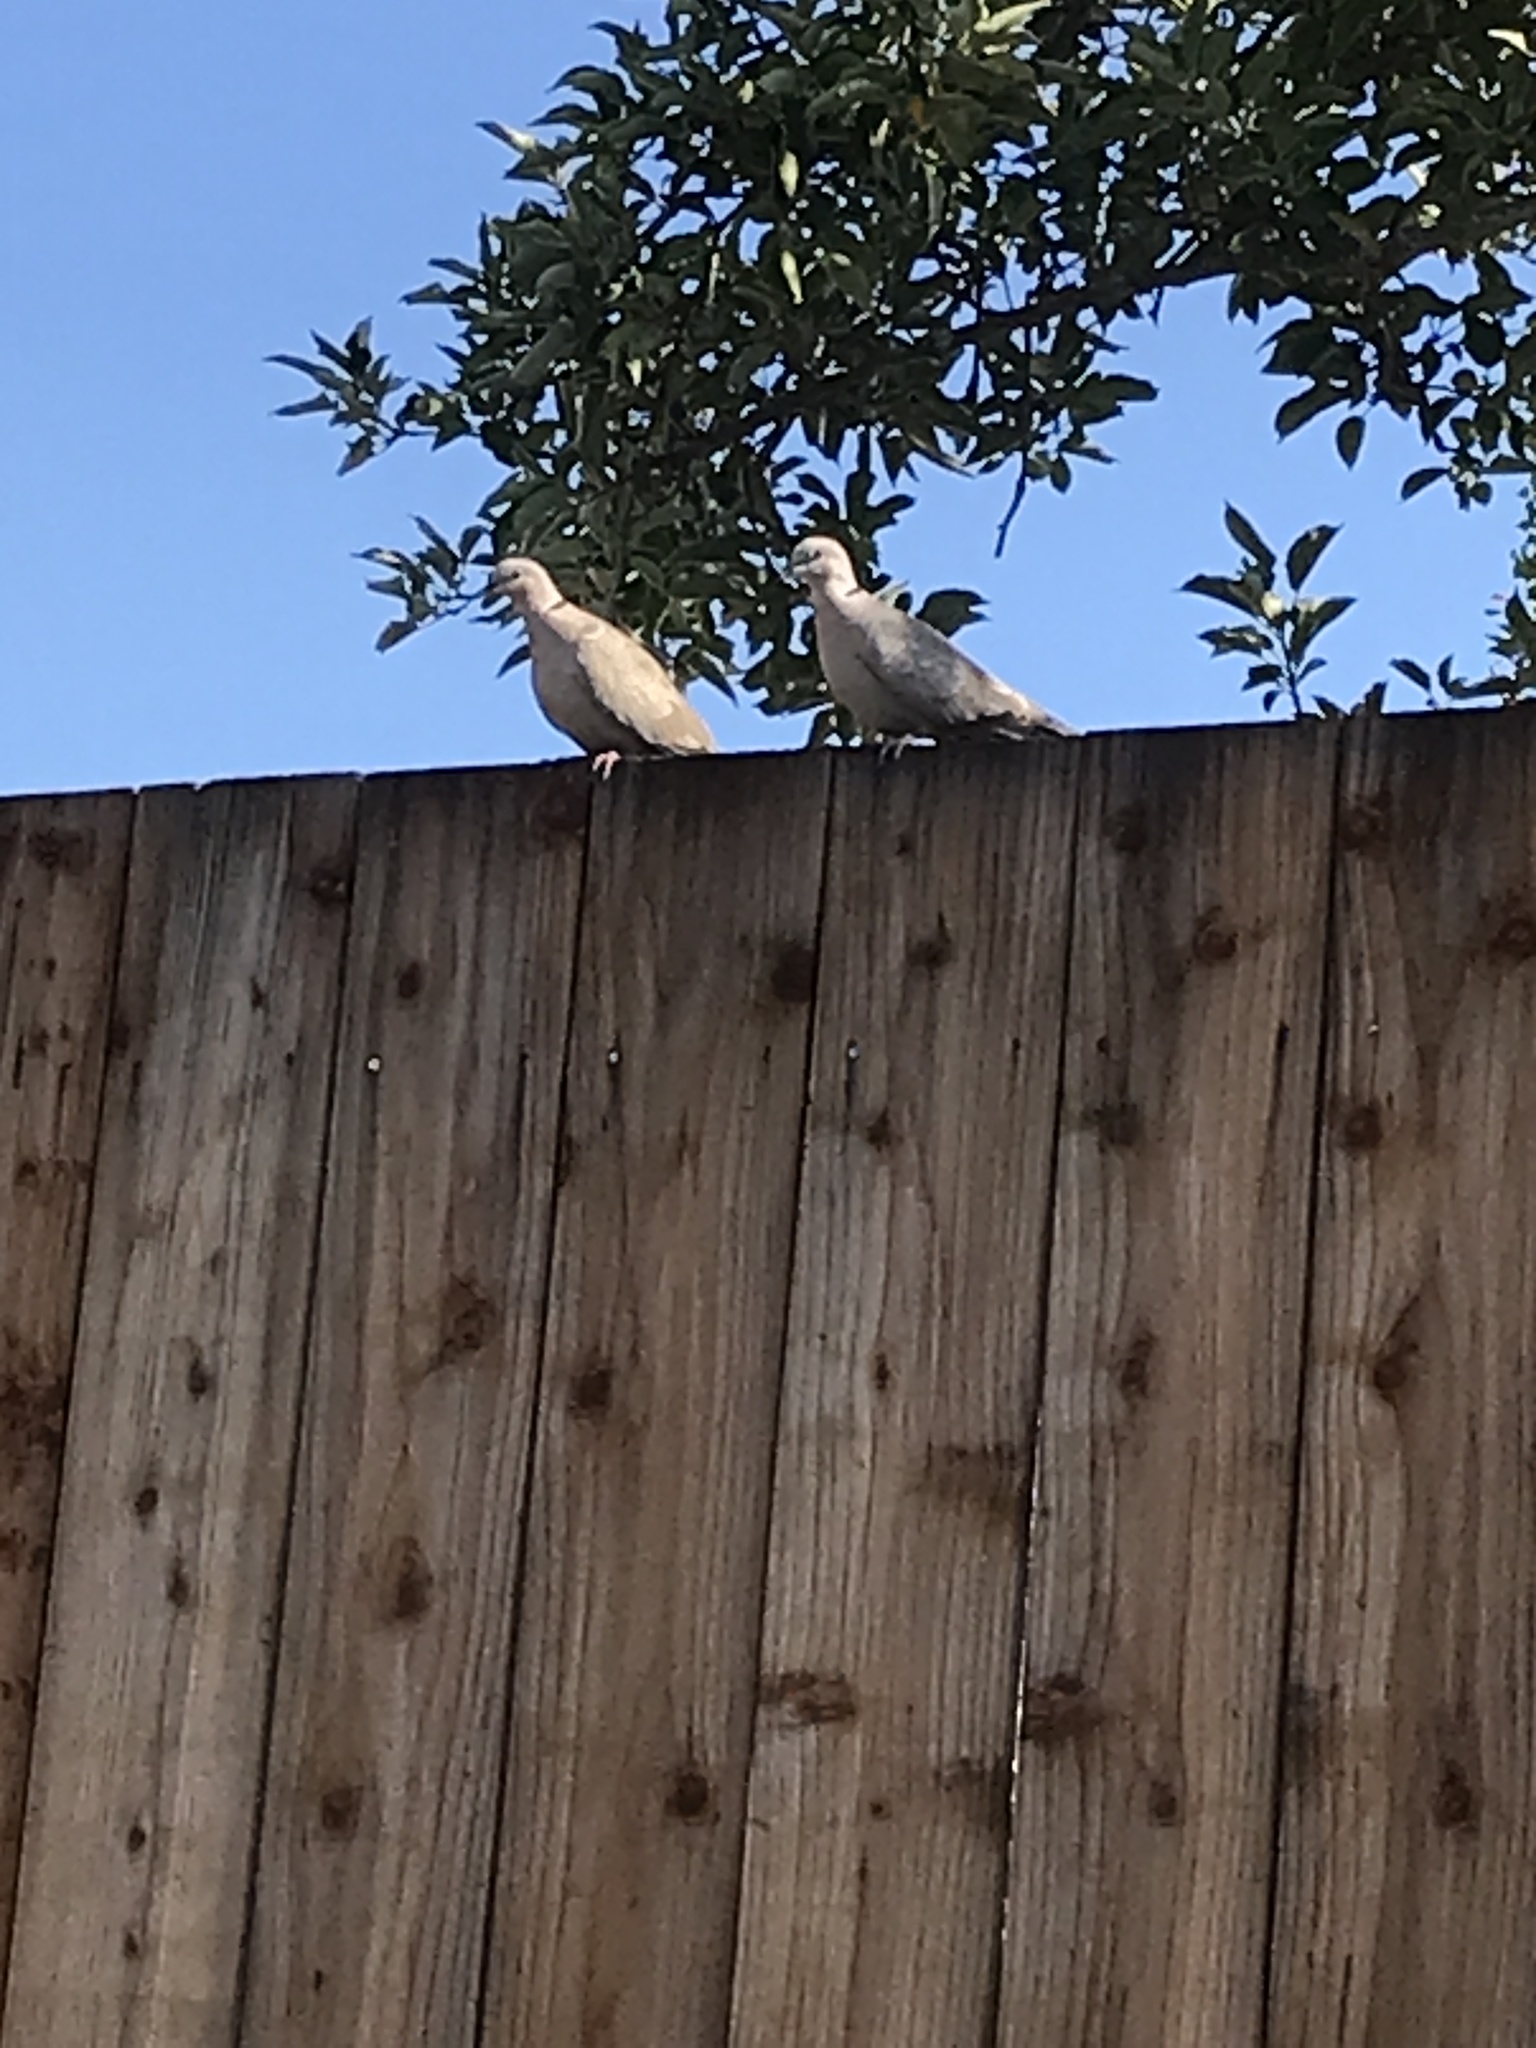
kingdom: Animalia
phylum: Chordata
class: Aves
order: Columbiformes
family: Columbidae
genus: Streptopelia
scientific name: Streptopelia decaocto
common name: Eurasian collared dove
